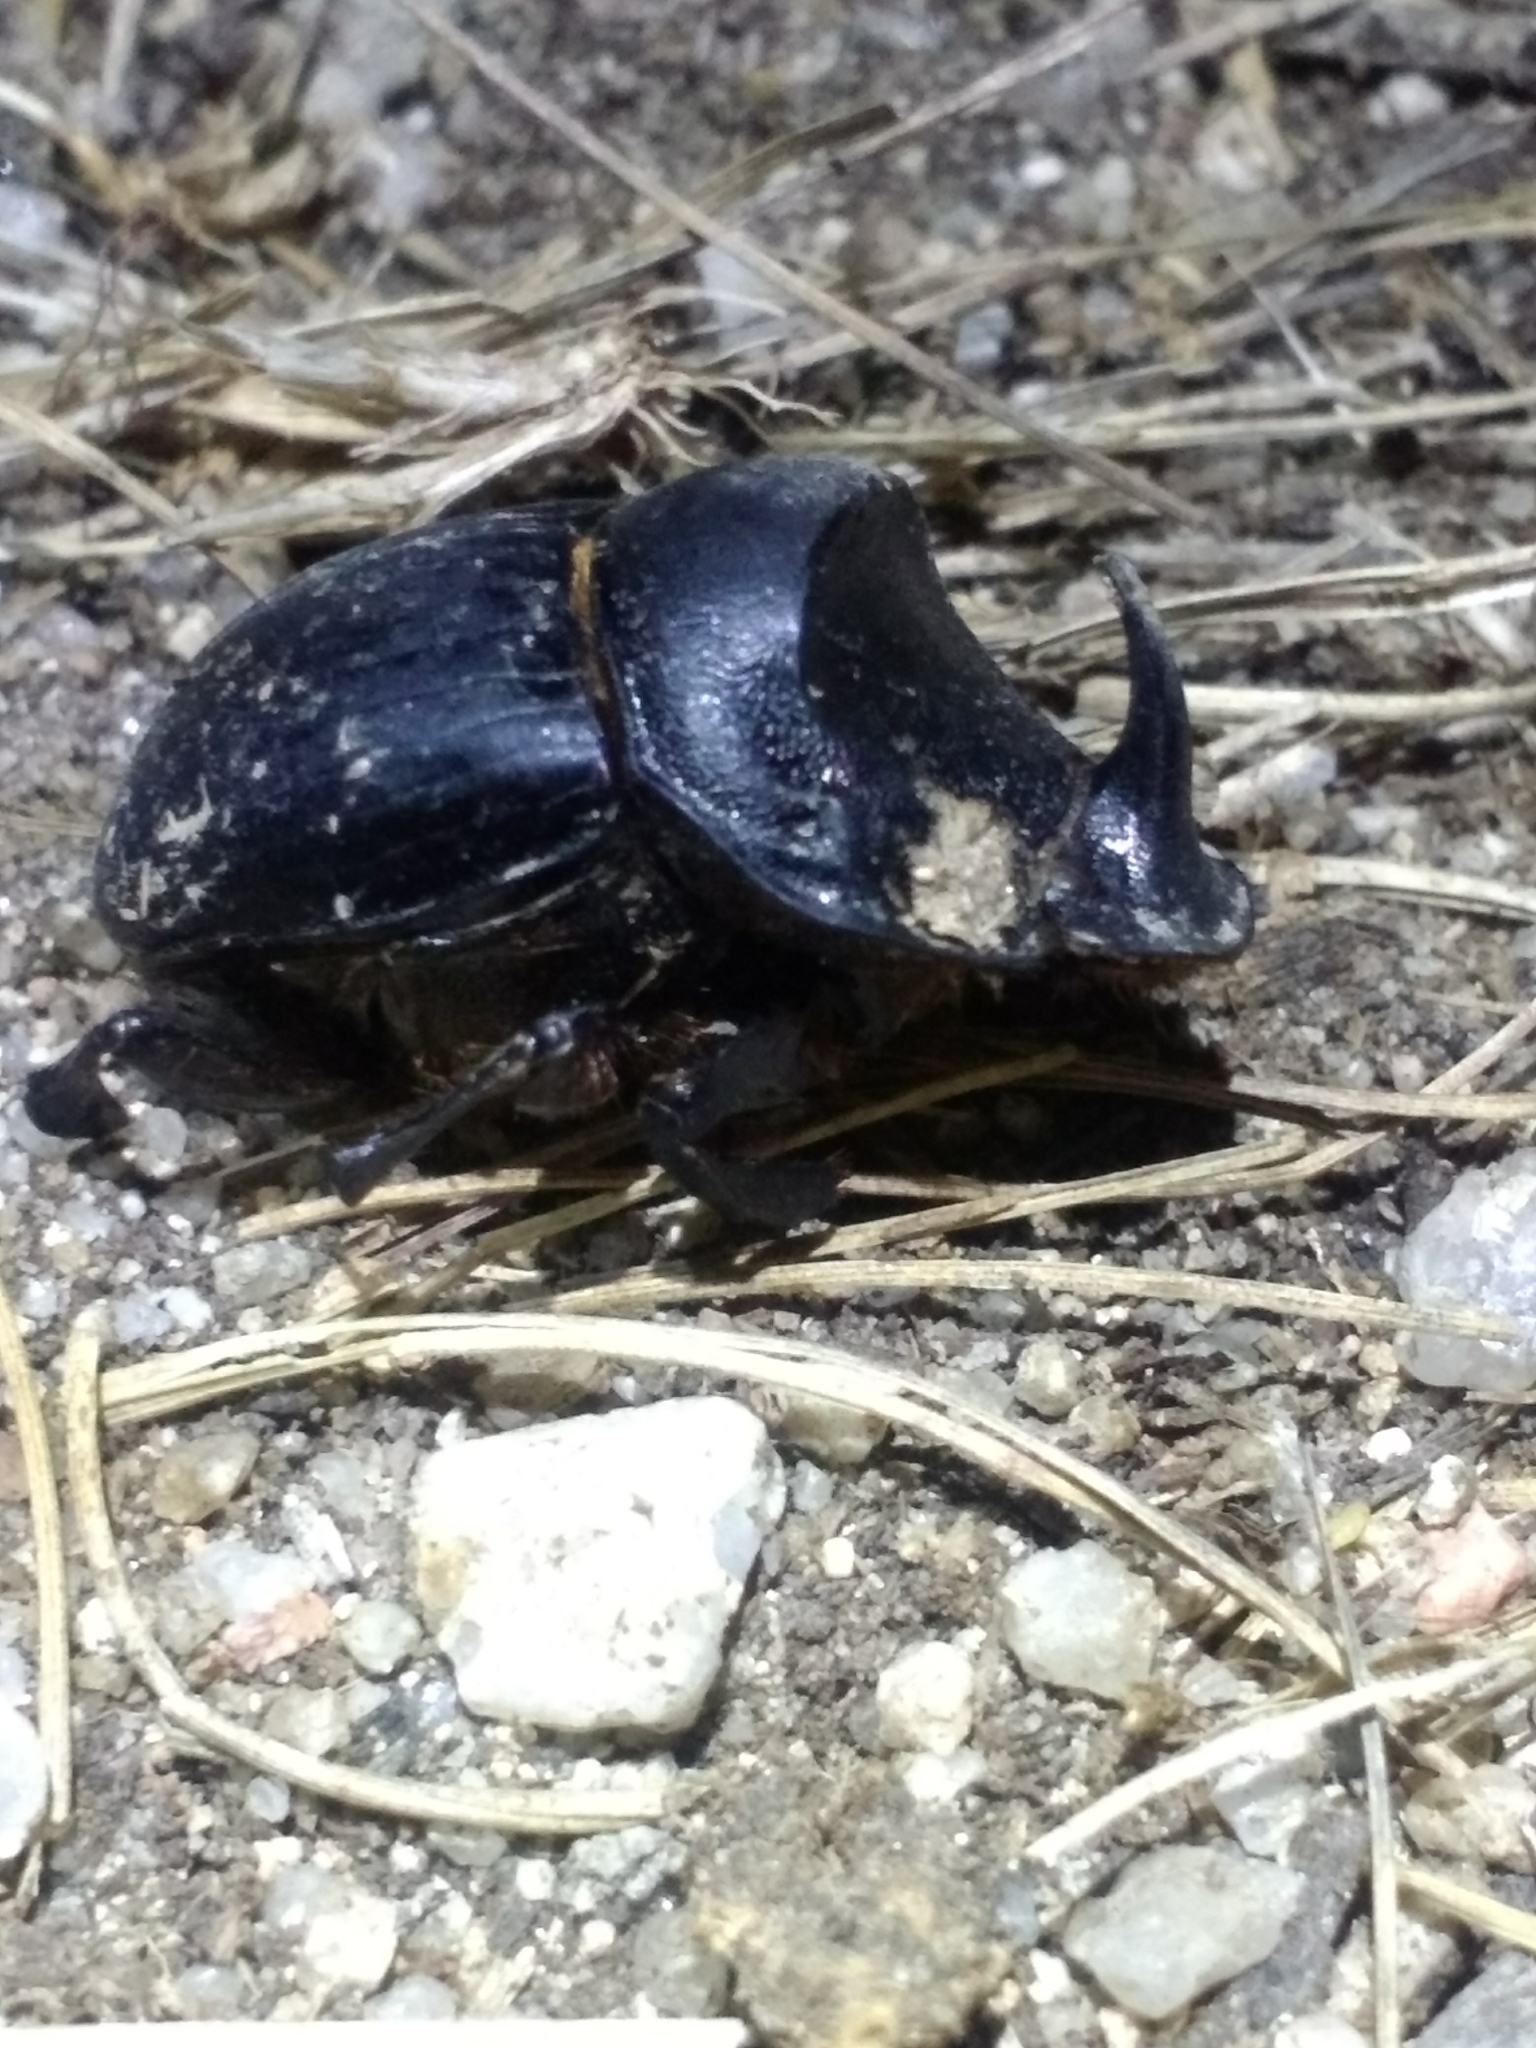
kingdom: Animalia
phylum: Arthropoda
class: Insecta
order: Coleoptera
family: Scarabaeidae
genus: Copris
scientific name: Copris hispanus
